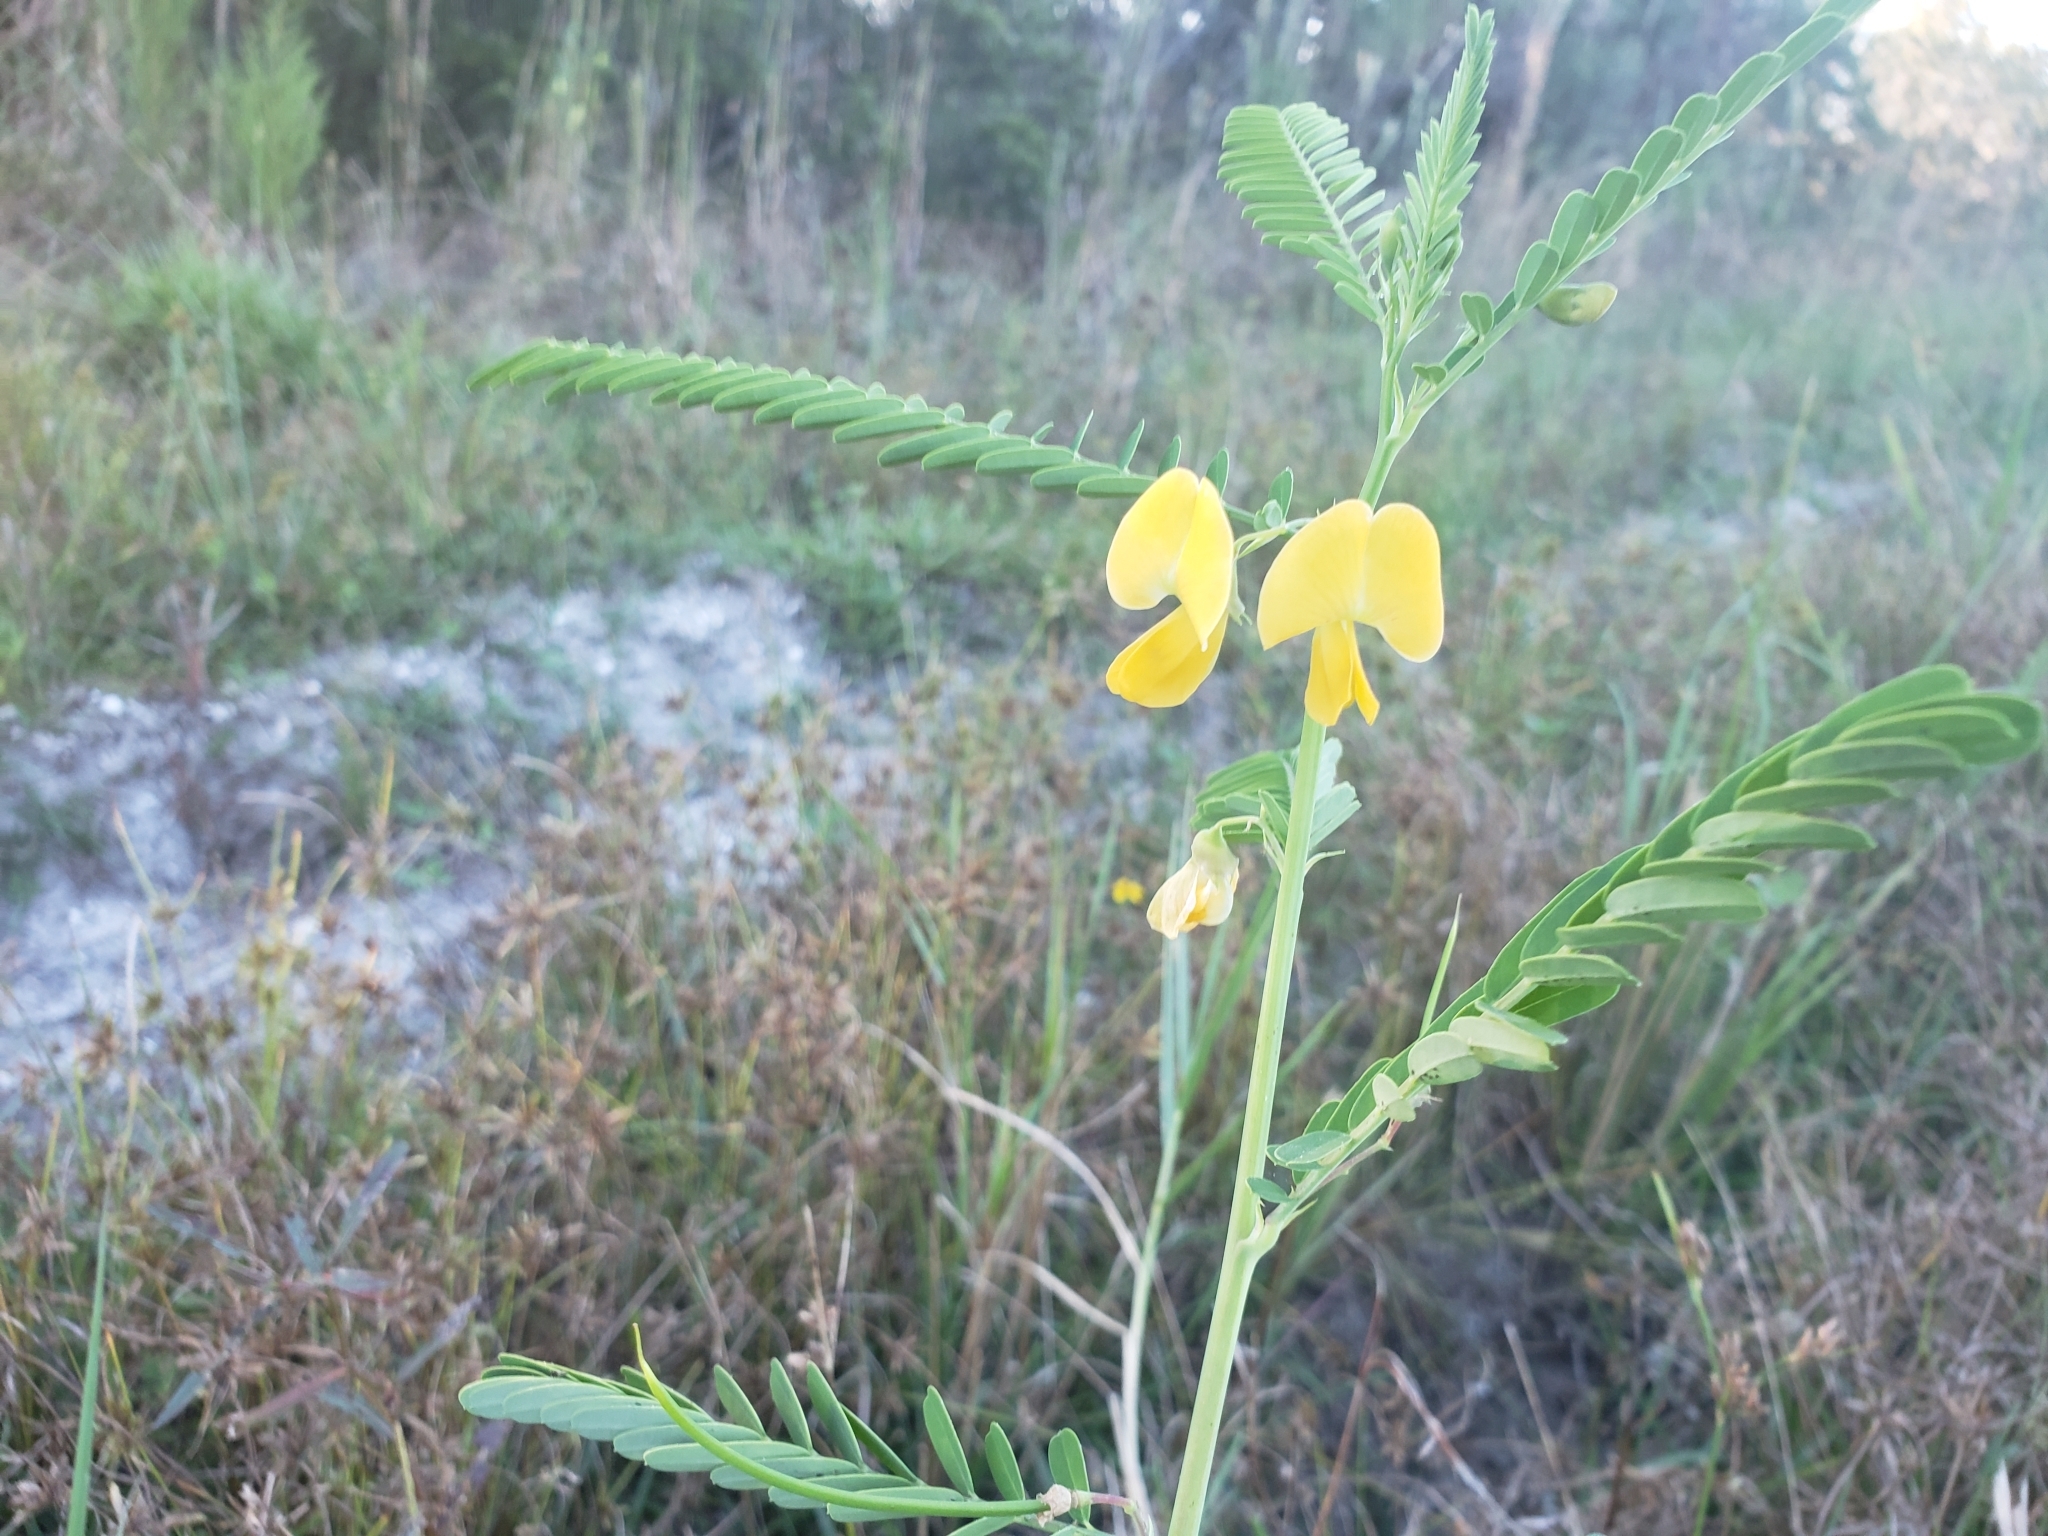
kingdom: Plantae
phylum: Tracheophyta
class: Magnoliopsida
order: Fabales
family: Fabaceae
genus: Sesbania
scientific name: Sesbania herbacea
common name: Bigpod sesbania
